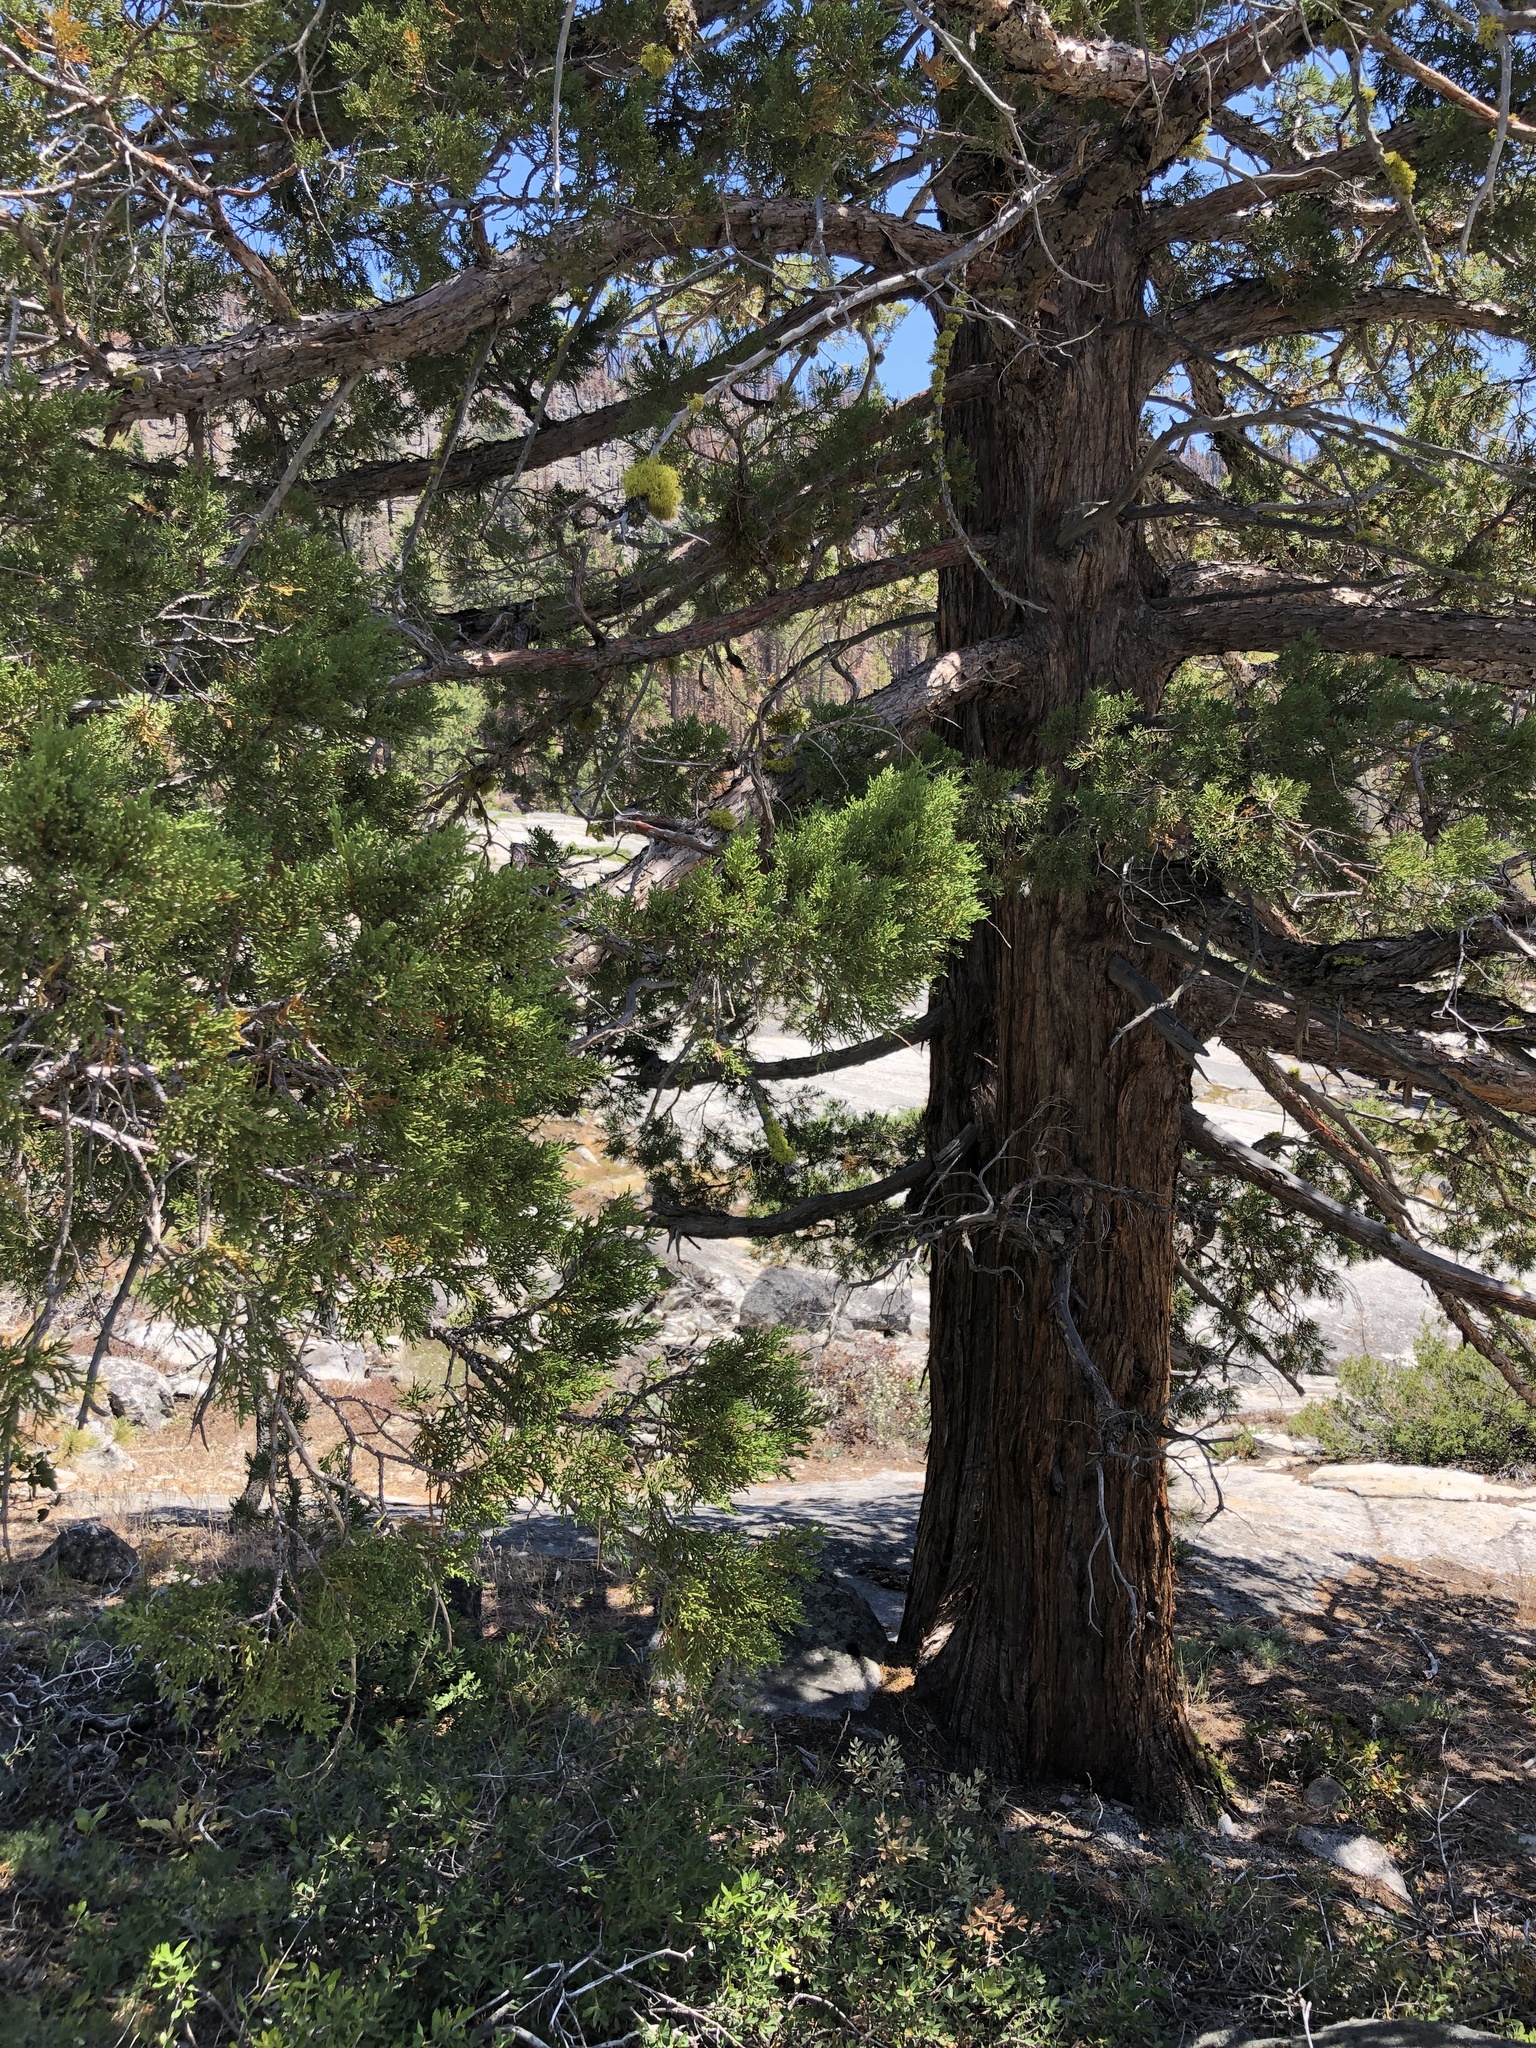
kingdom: Plantae
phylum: Tracheophyta
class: Pinopsida
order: Pinales
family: Cupressaceae
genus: Juniperus
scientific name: Juniperus occidentalis
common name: Western juniper
